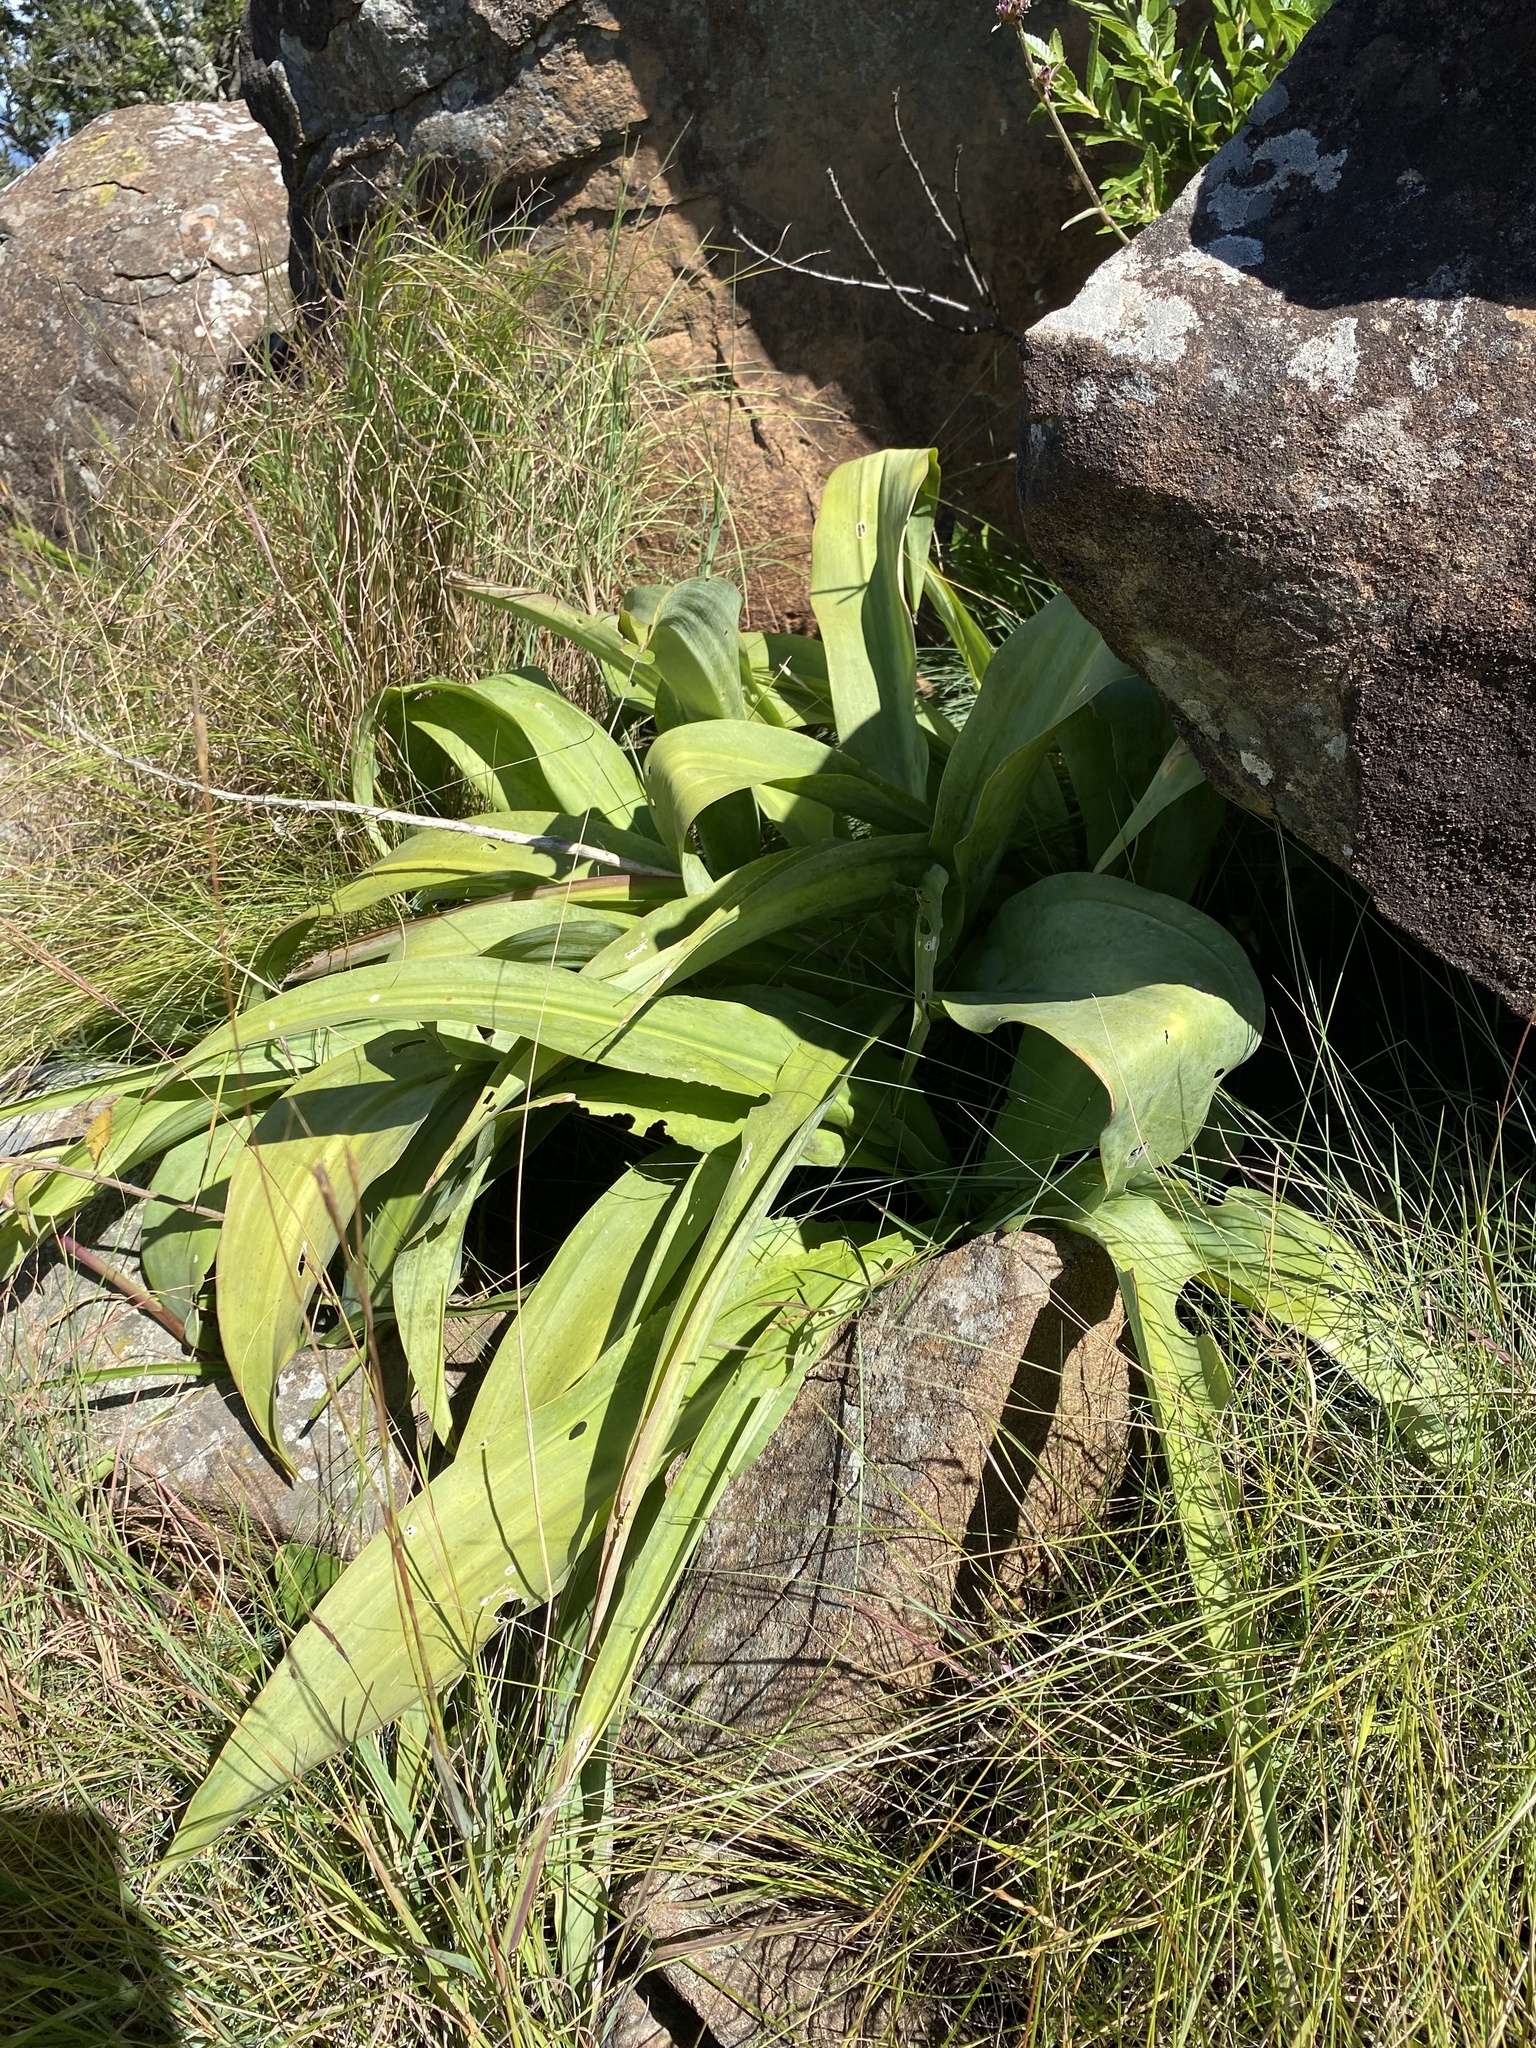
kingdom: Plantae
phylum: Tracheophyta
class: Liliopsida
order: Asparagales
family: Asparagaceae
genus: Merwilla
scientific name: Merwilla plumbea
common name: Blue-squill
